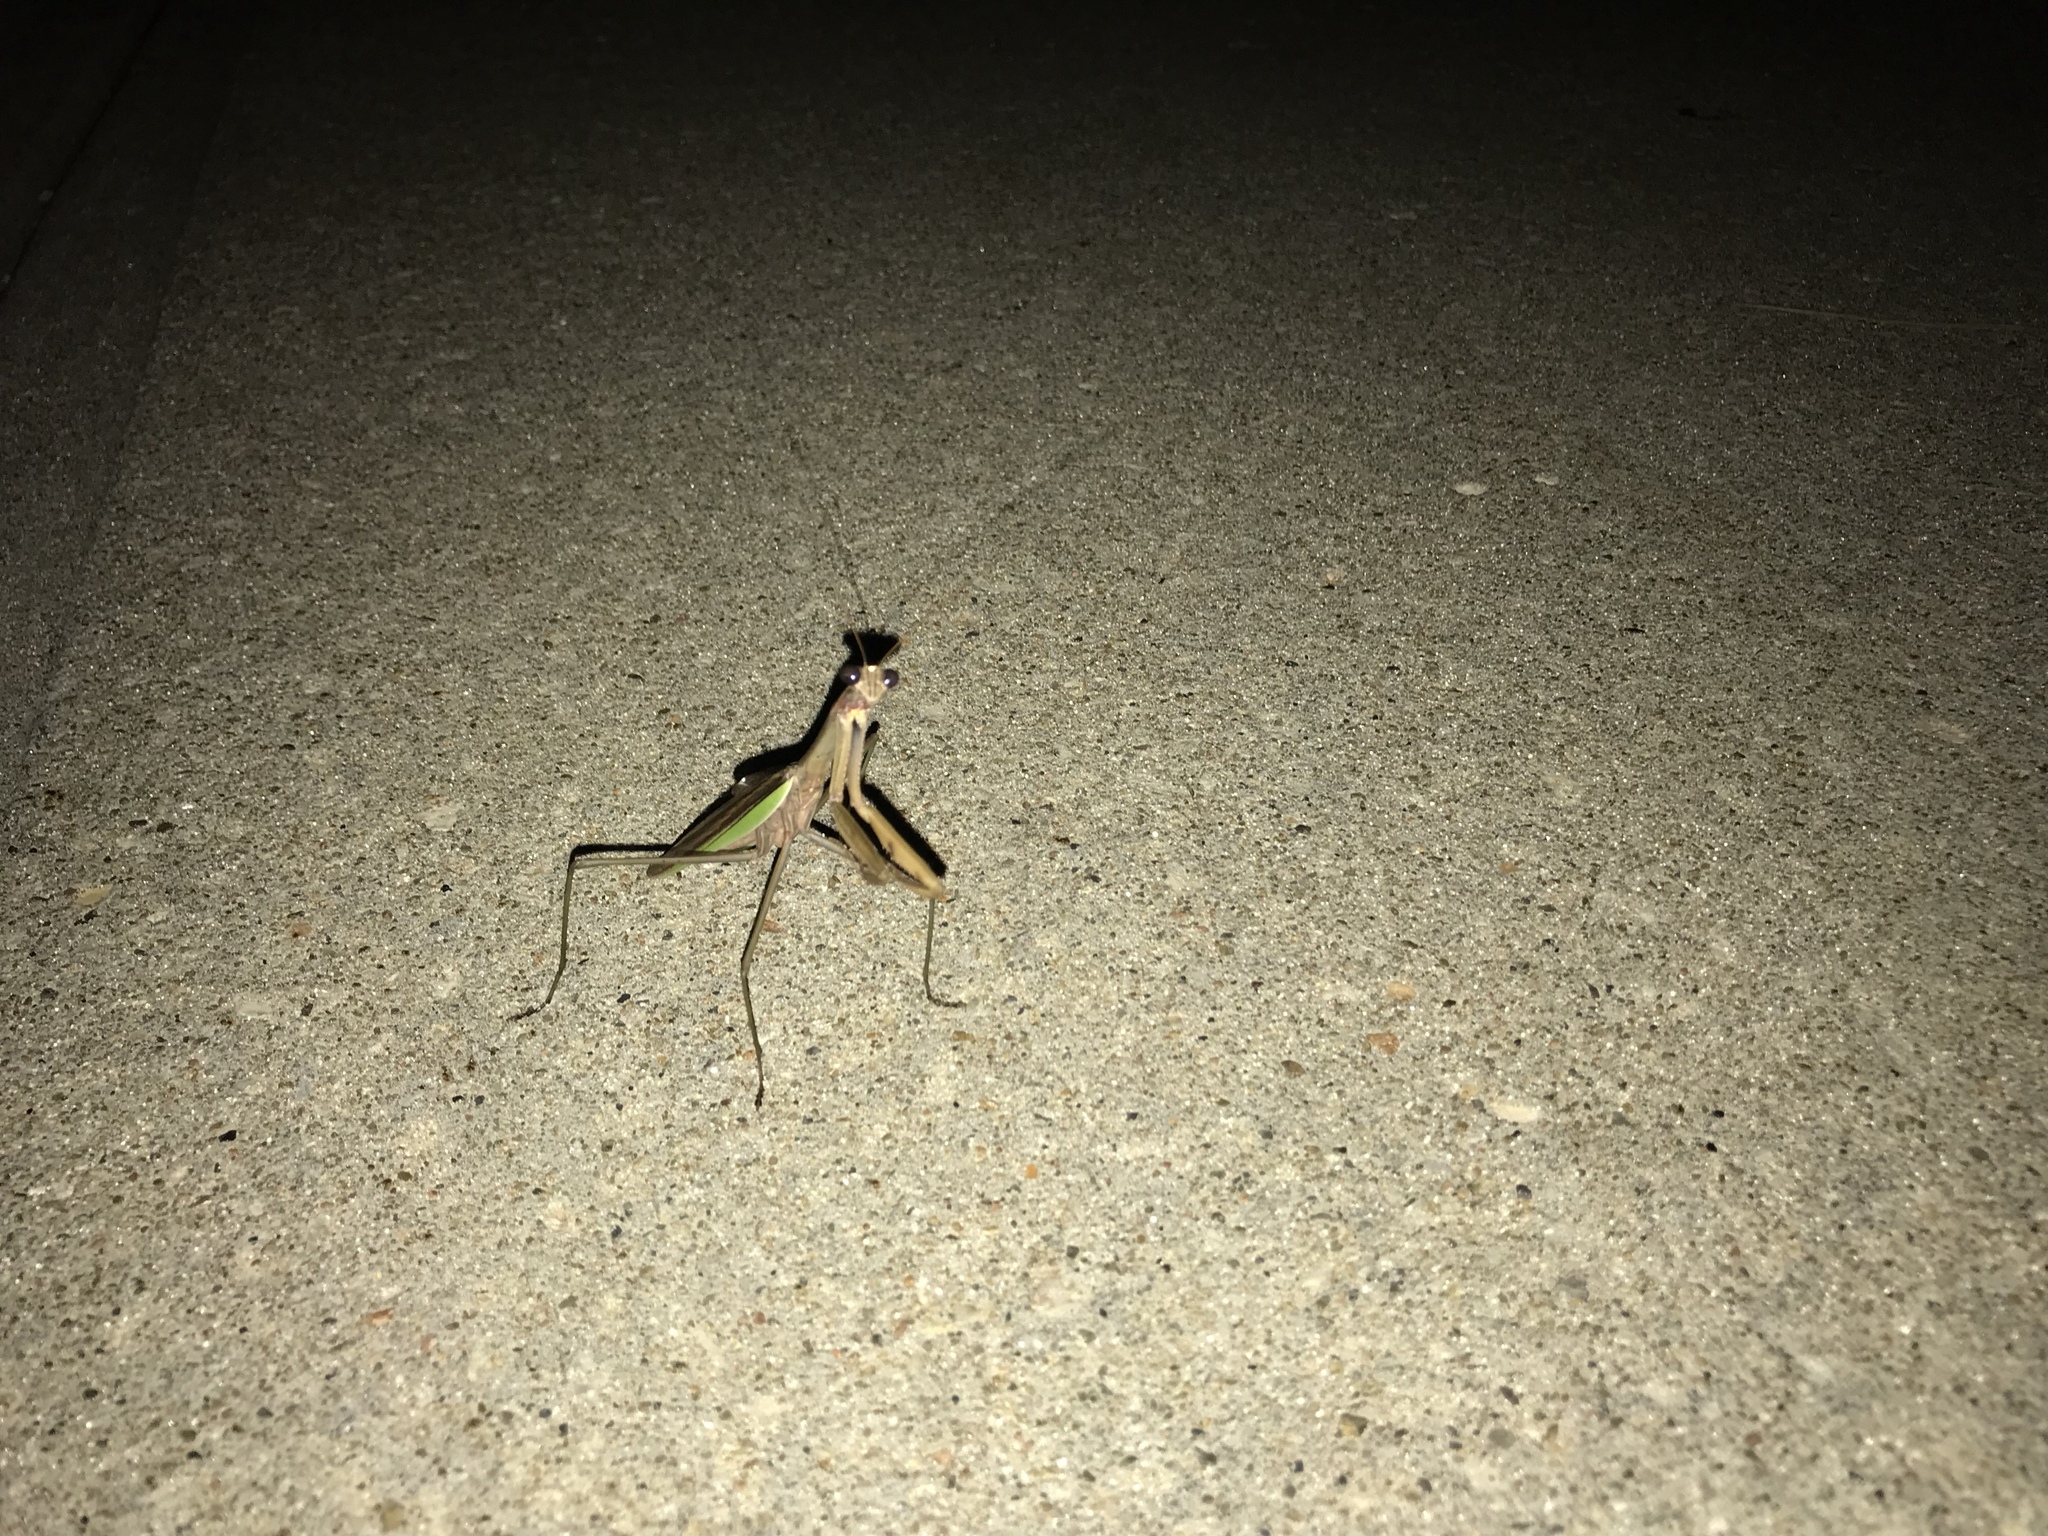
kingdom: Animalia
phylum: Arthropoda
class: Insecta
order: Mantodea
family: Mantidae
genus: Tenodera
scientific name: Tenodera sinensis
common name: Chinese mantis
